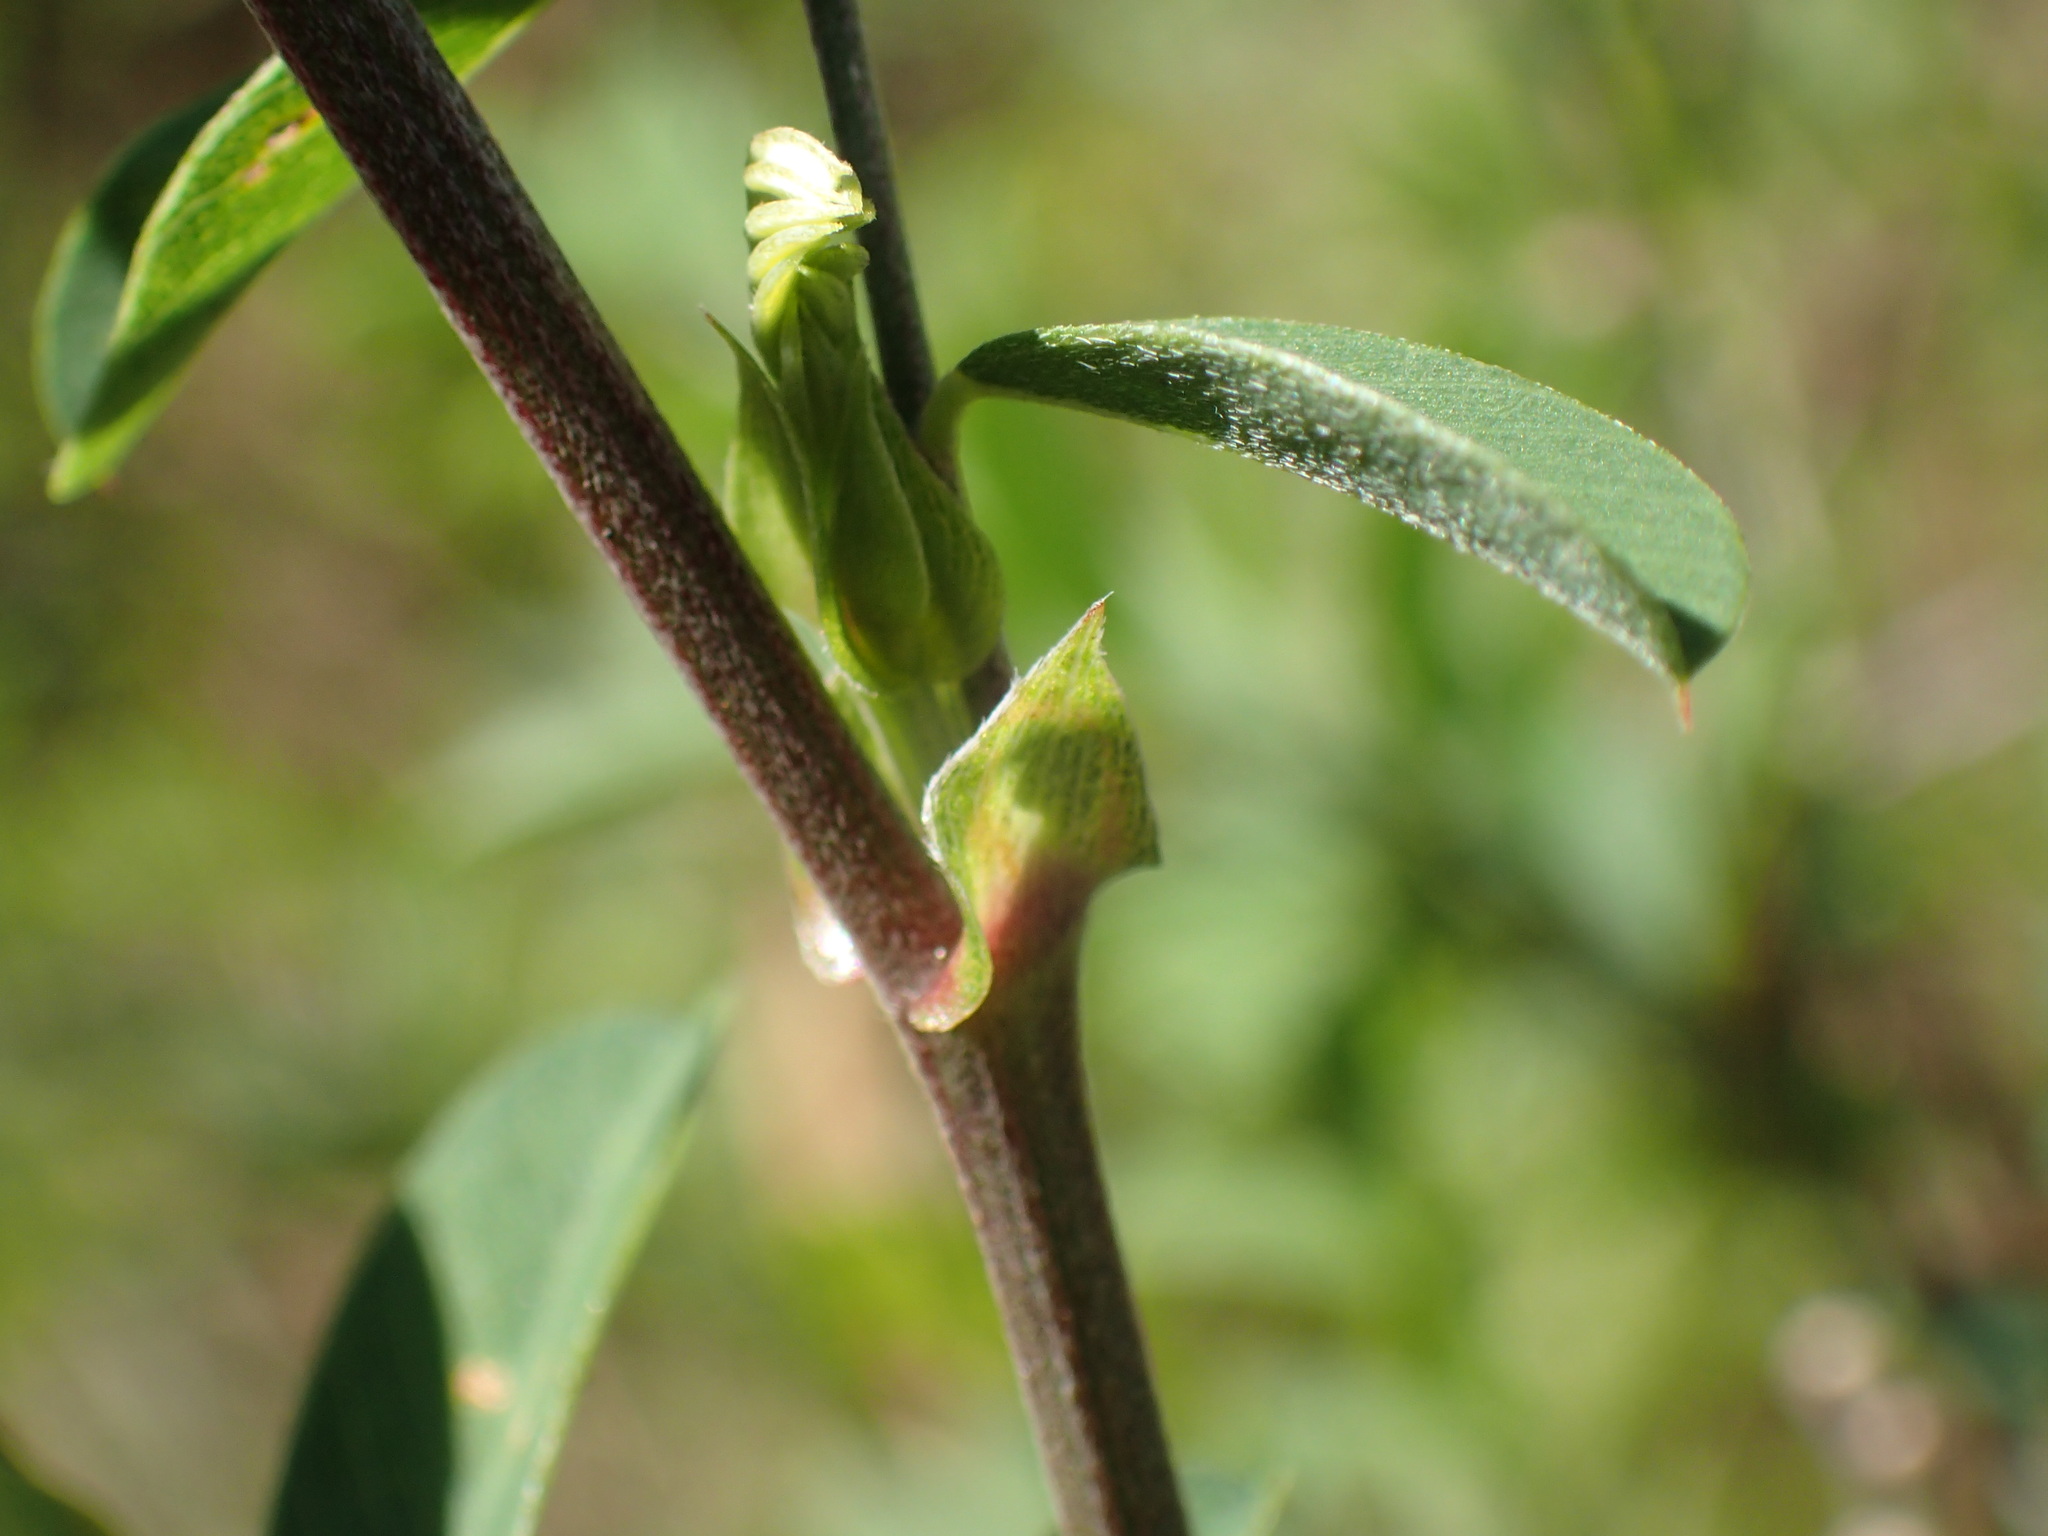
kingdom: Plantae
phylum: Tracheophyta
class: Magnoliopsida
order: Fabales
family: Fabaceae
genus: Tephrosia
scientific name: Tephrosia shiluwanensis
